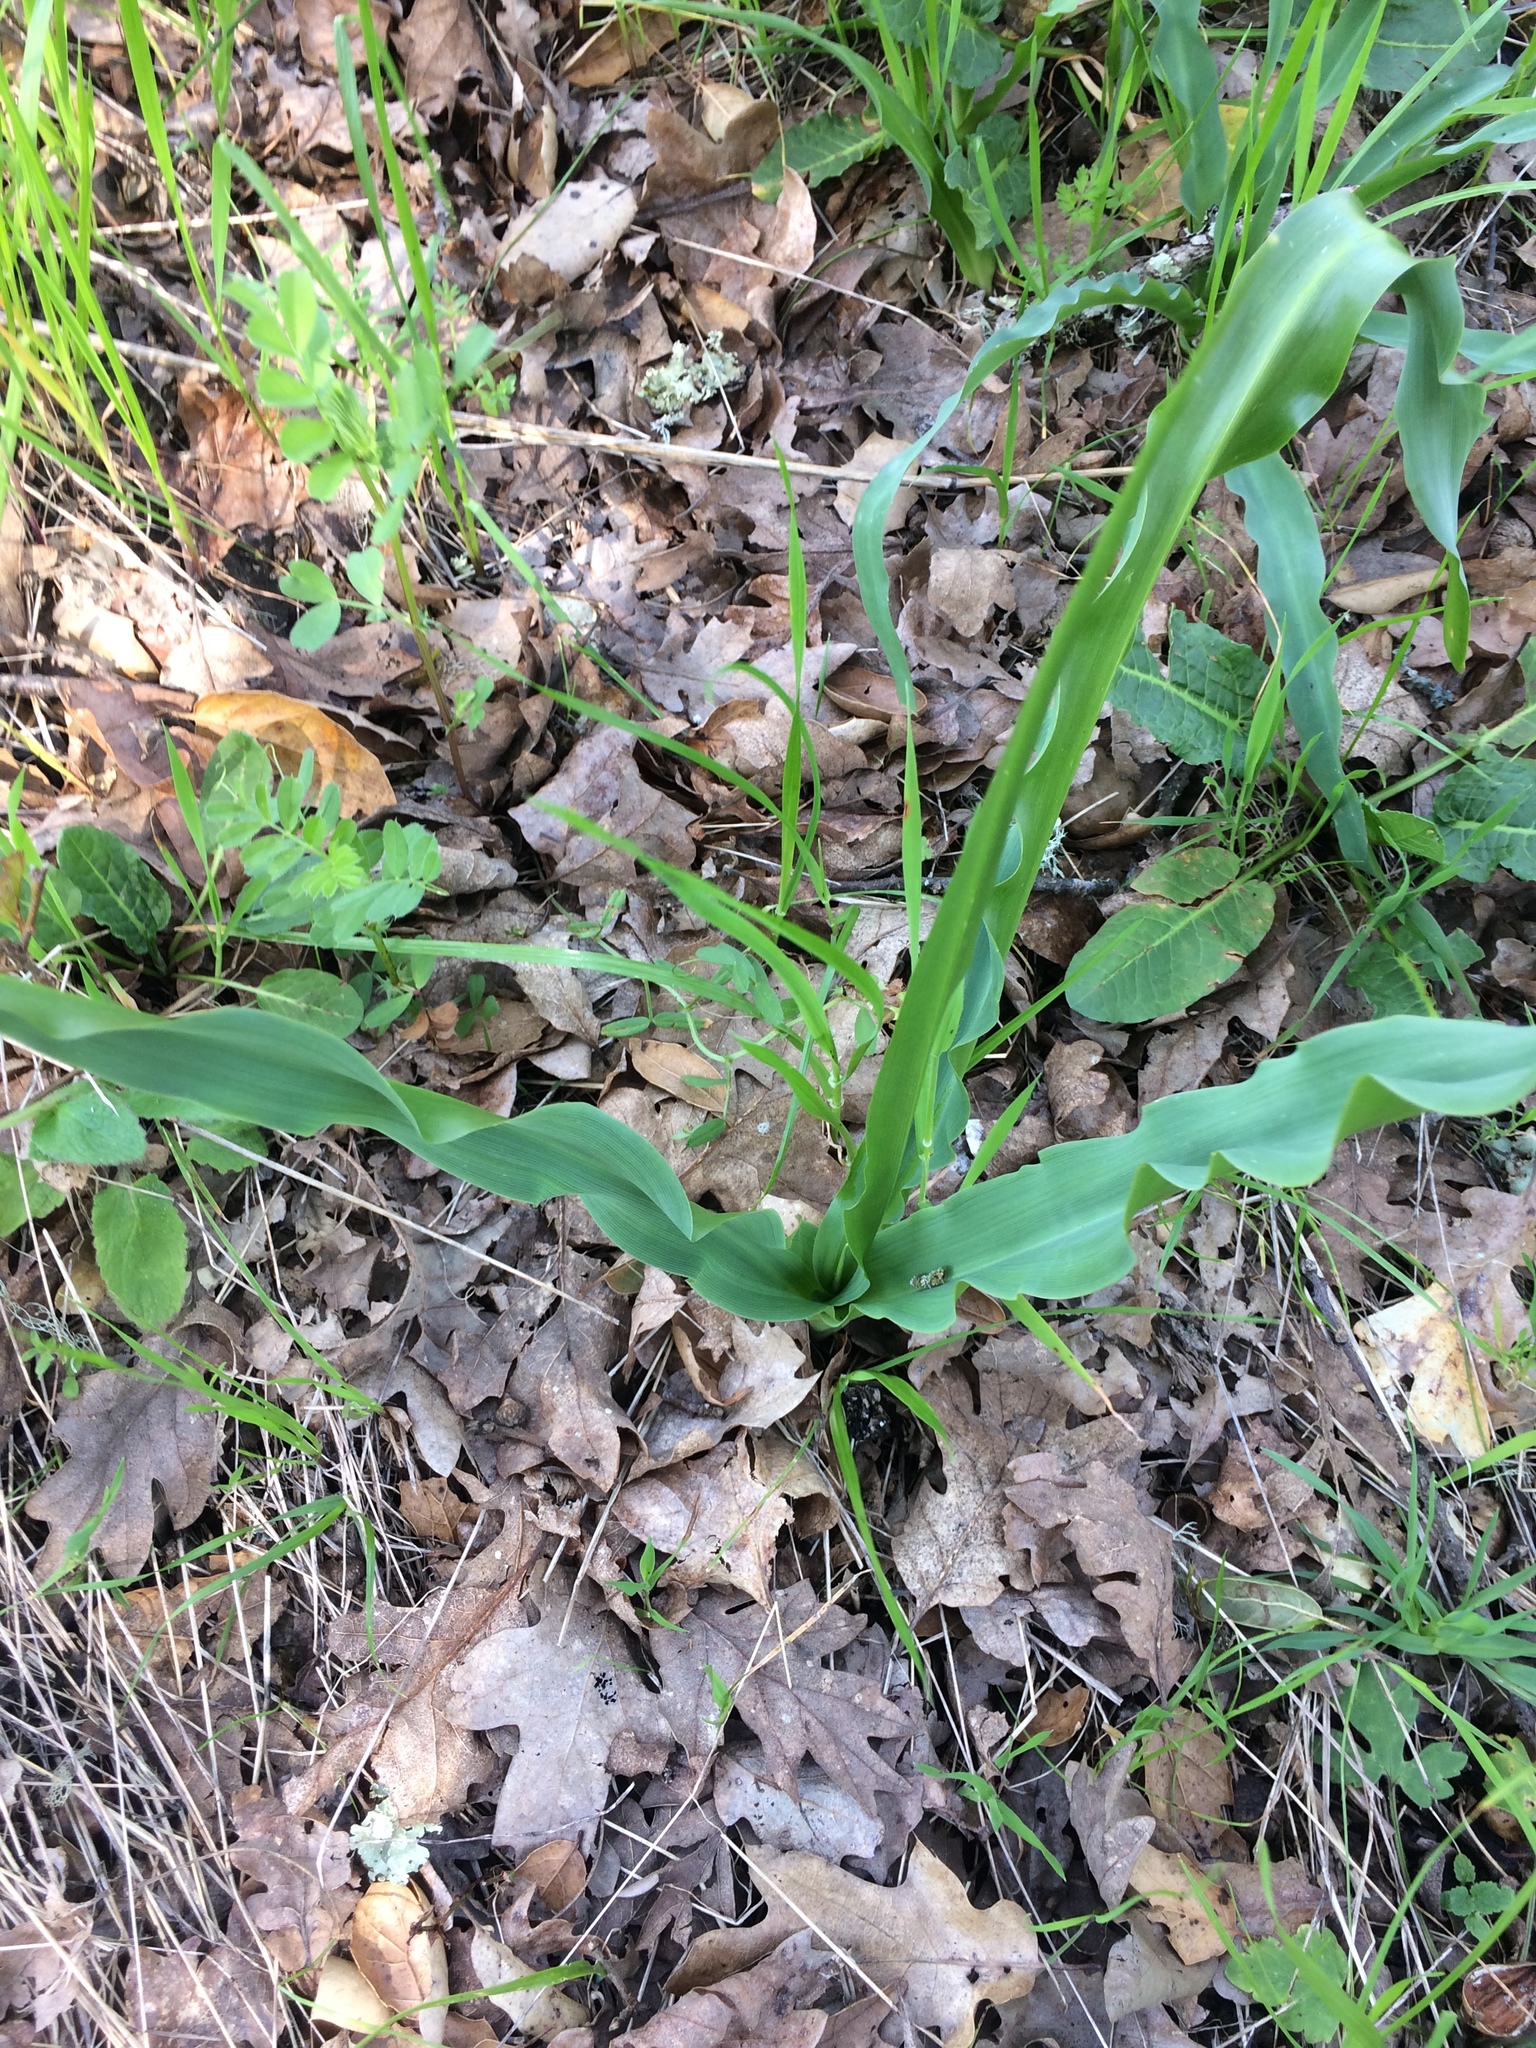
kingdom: Plantae
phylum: Tracheophyta
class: Liliopsida
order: Asparagales
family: Asparagaceae
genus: Chlorogalum
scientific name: Chlorogalum pomeridianum
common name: Amole
